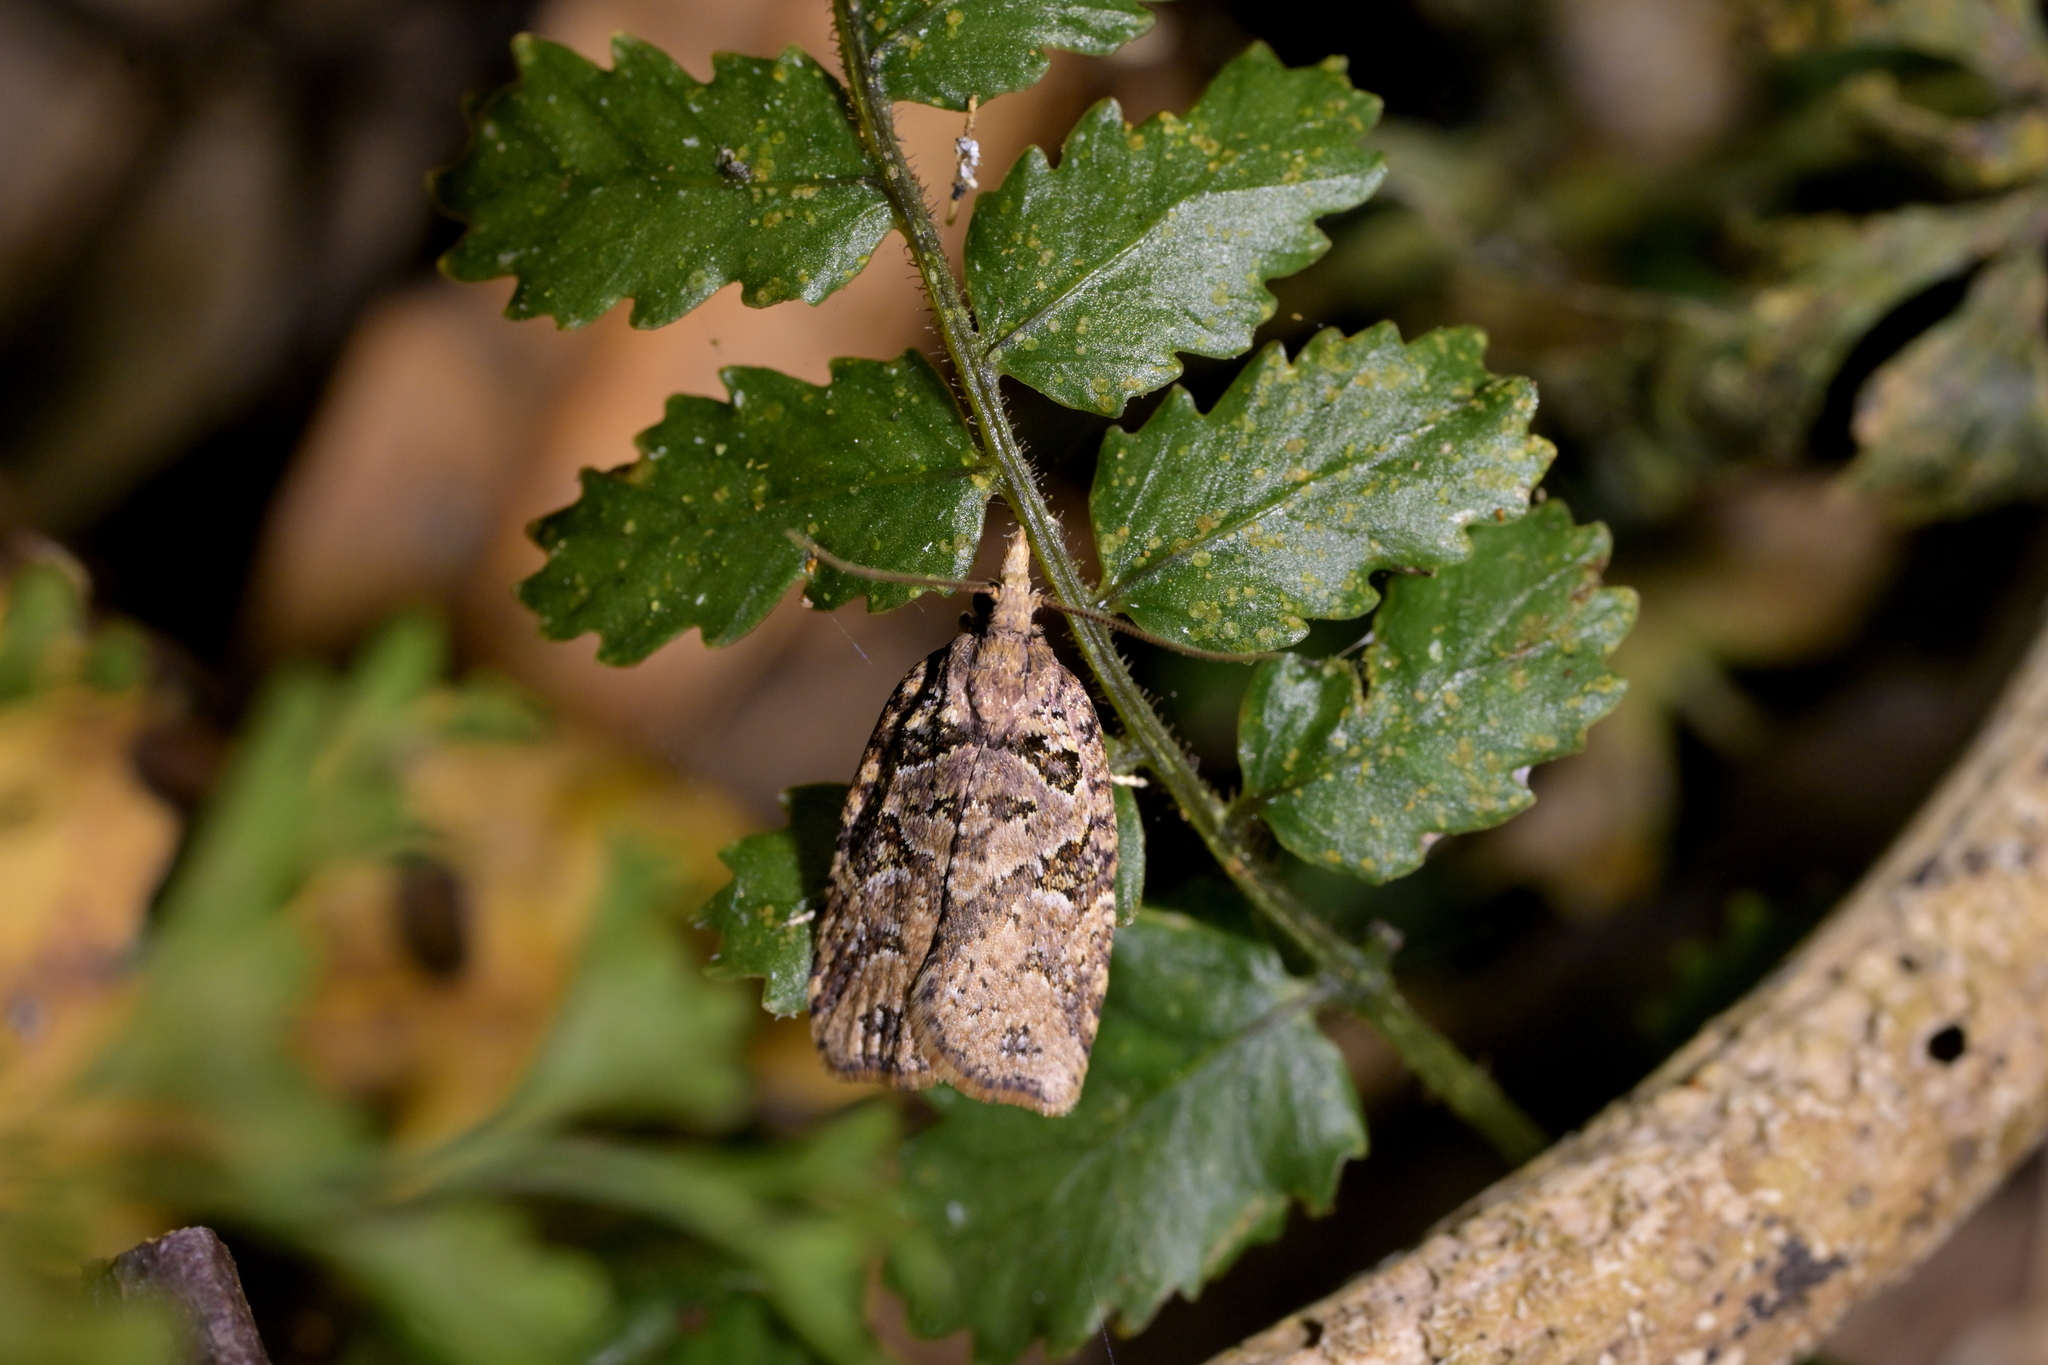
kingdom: Animalia
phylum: Arthropoda
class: Insecta
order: Lepidoptera
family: Tortricidae
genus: Ctenopseustis
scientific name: Ctenopseustis obliquana
